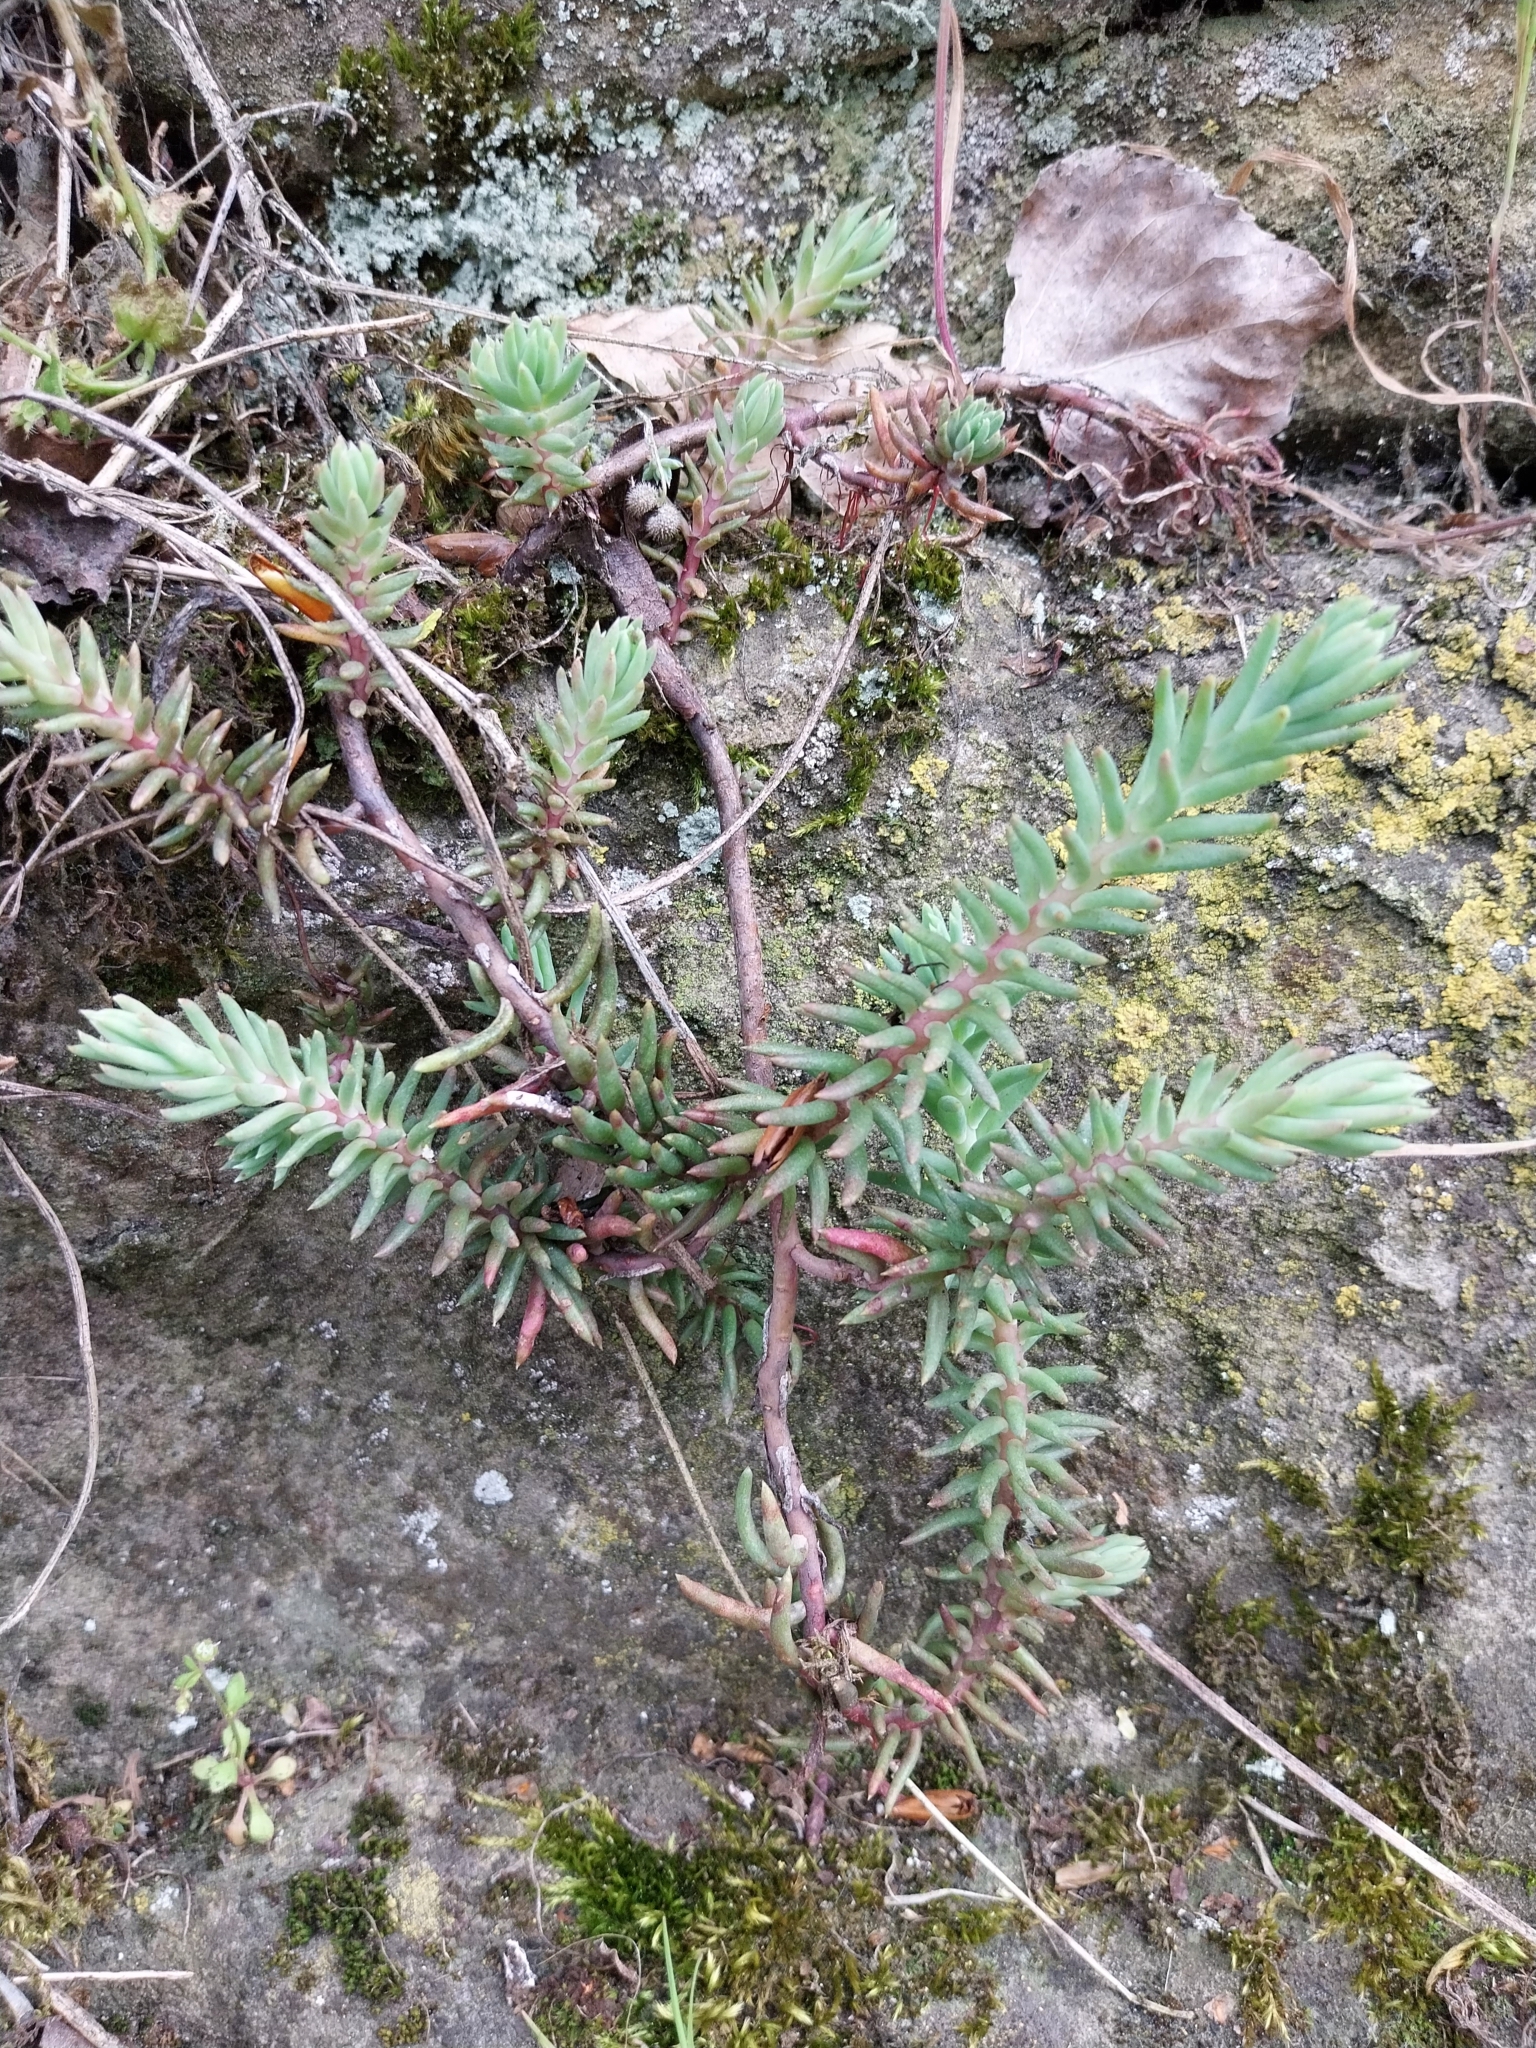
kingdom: Plantae
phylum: Tracheophyta
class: Magnoliopsida
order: Saxifragales
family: Crassulaceae
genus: Petrosedum
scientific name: Petrosedum rupestre
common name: Jenny's stonecrop
